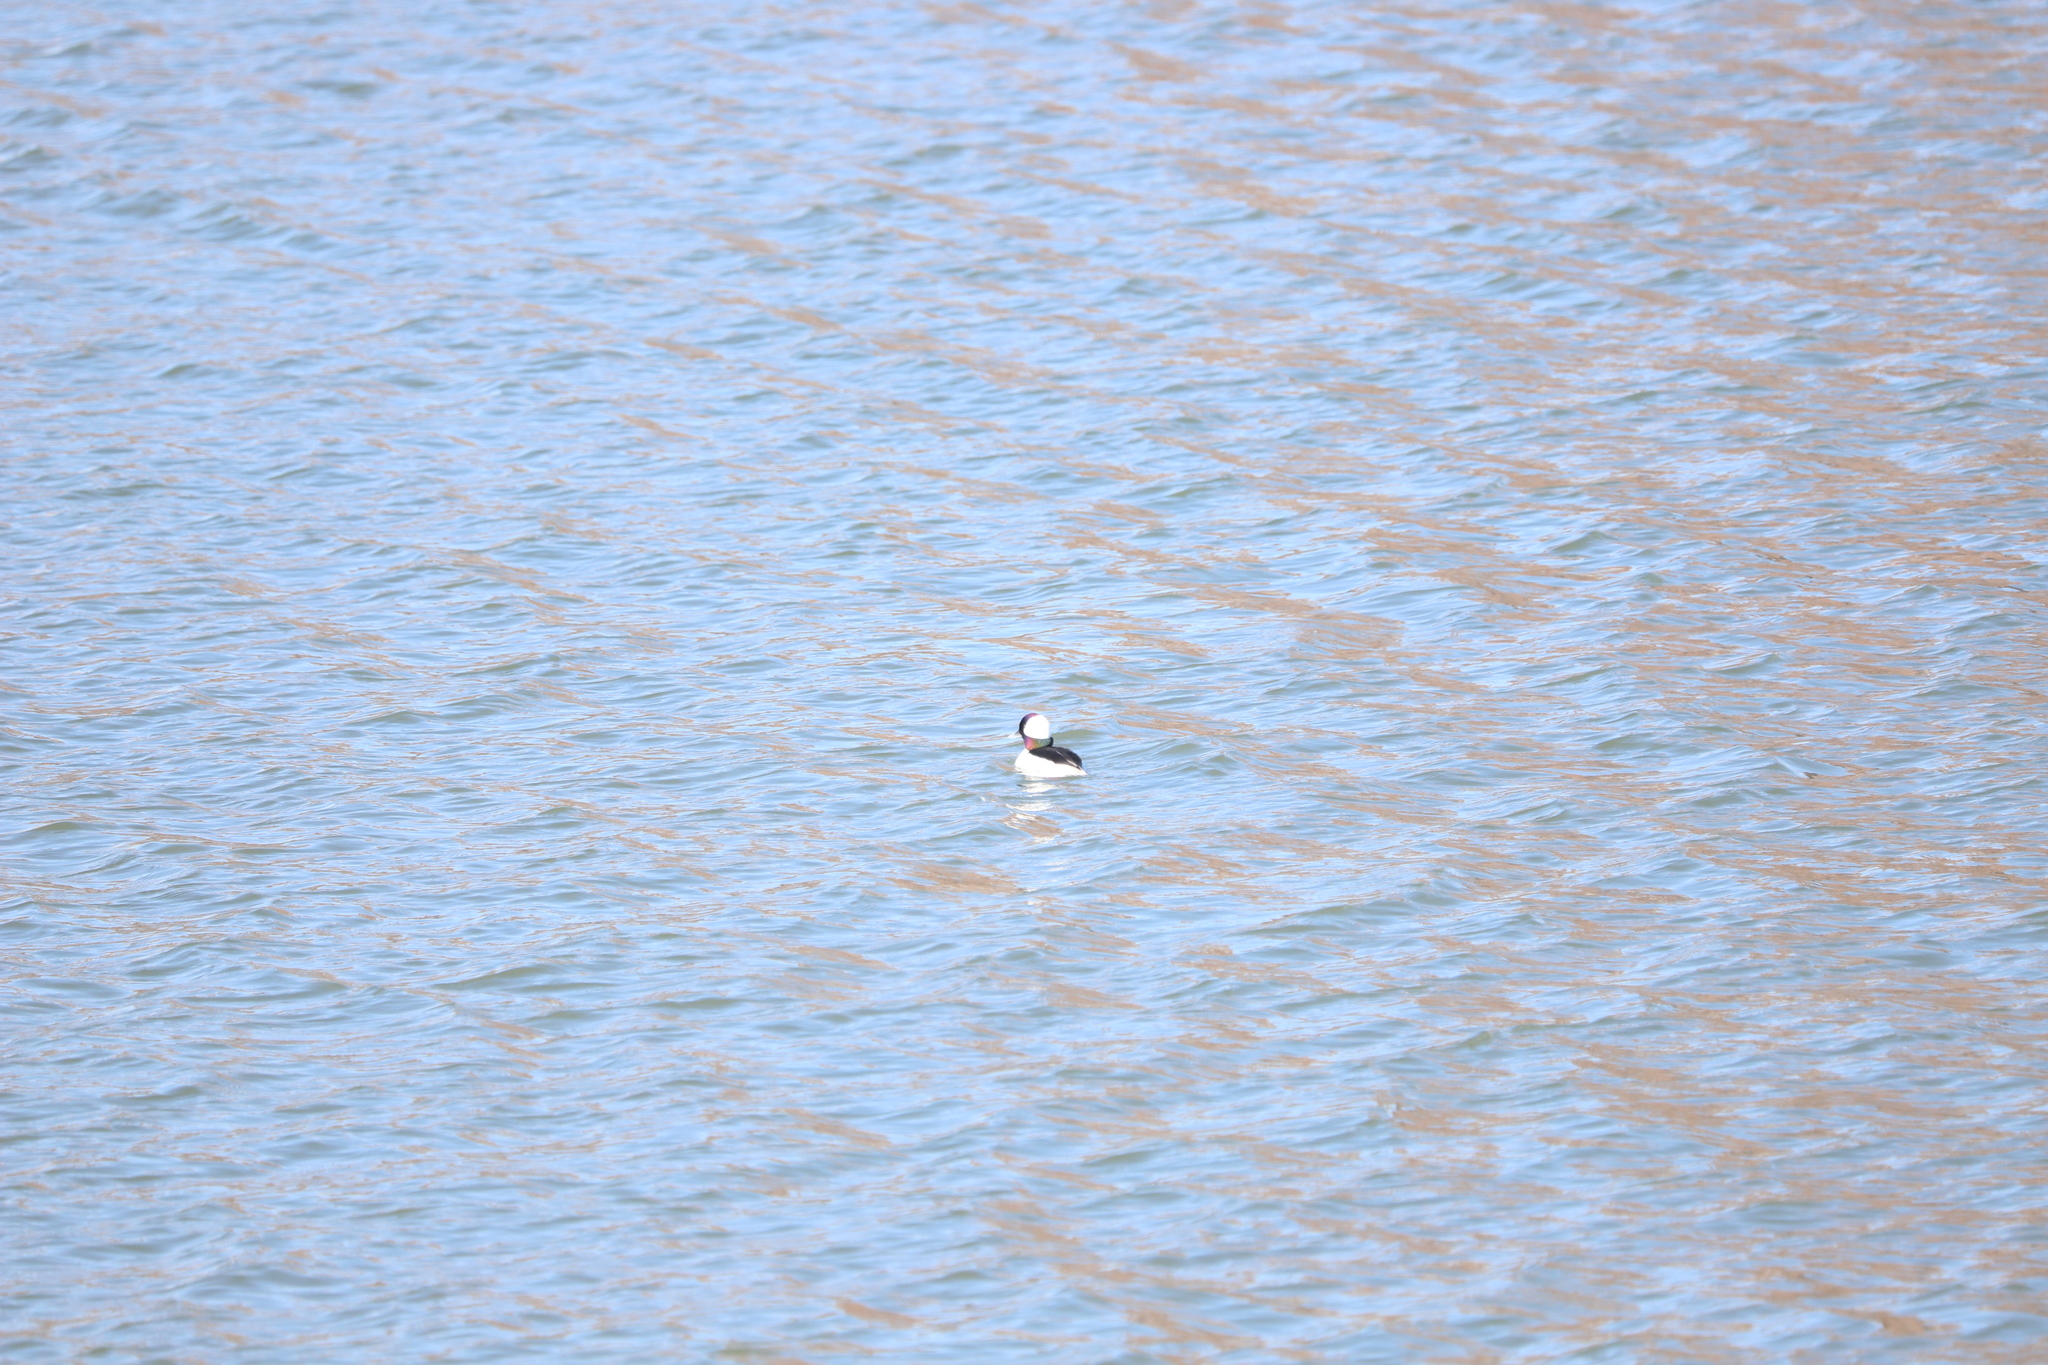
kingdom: Animalia
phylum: Chordata
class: Aves
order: Anseriformes
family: Anatidae
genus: Bucephala
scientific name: Bucephala albeola
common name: Bufflehead
